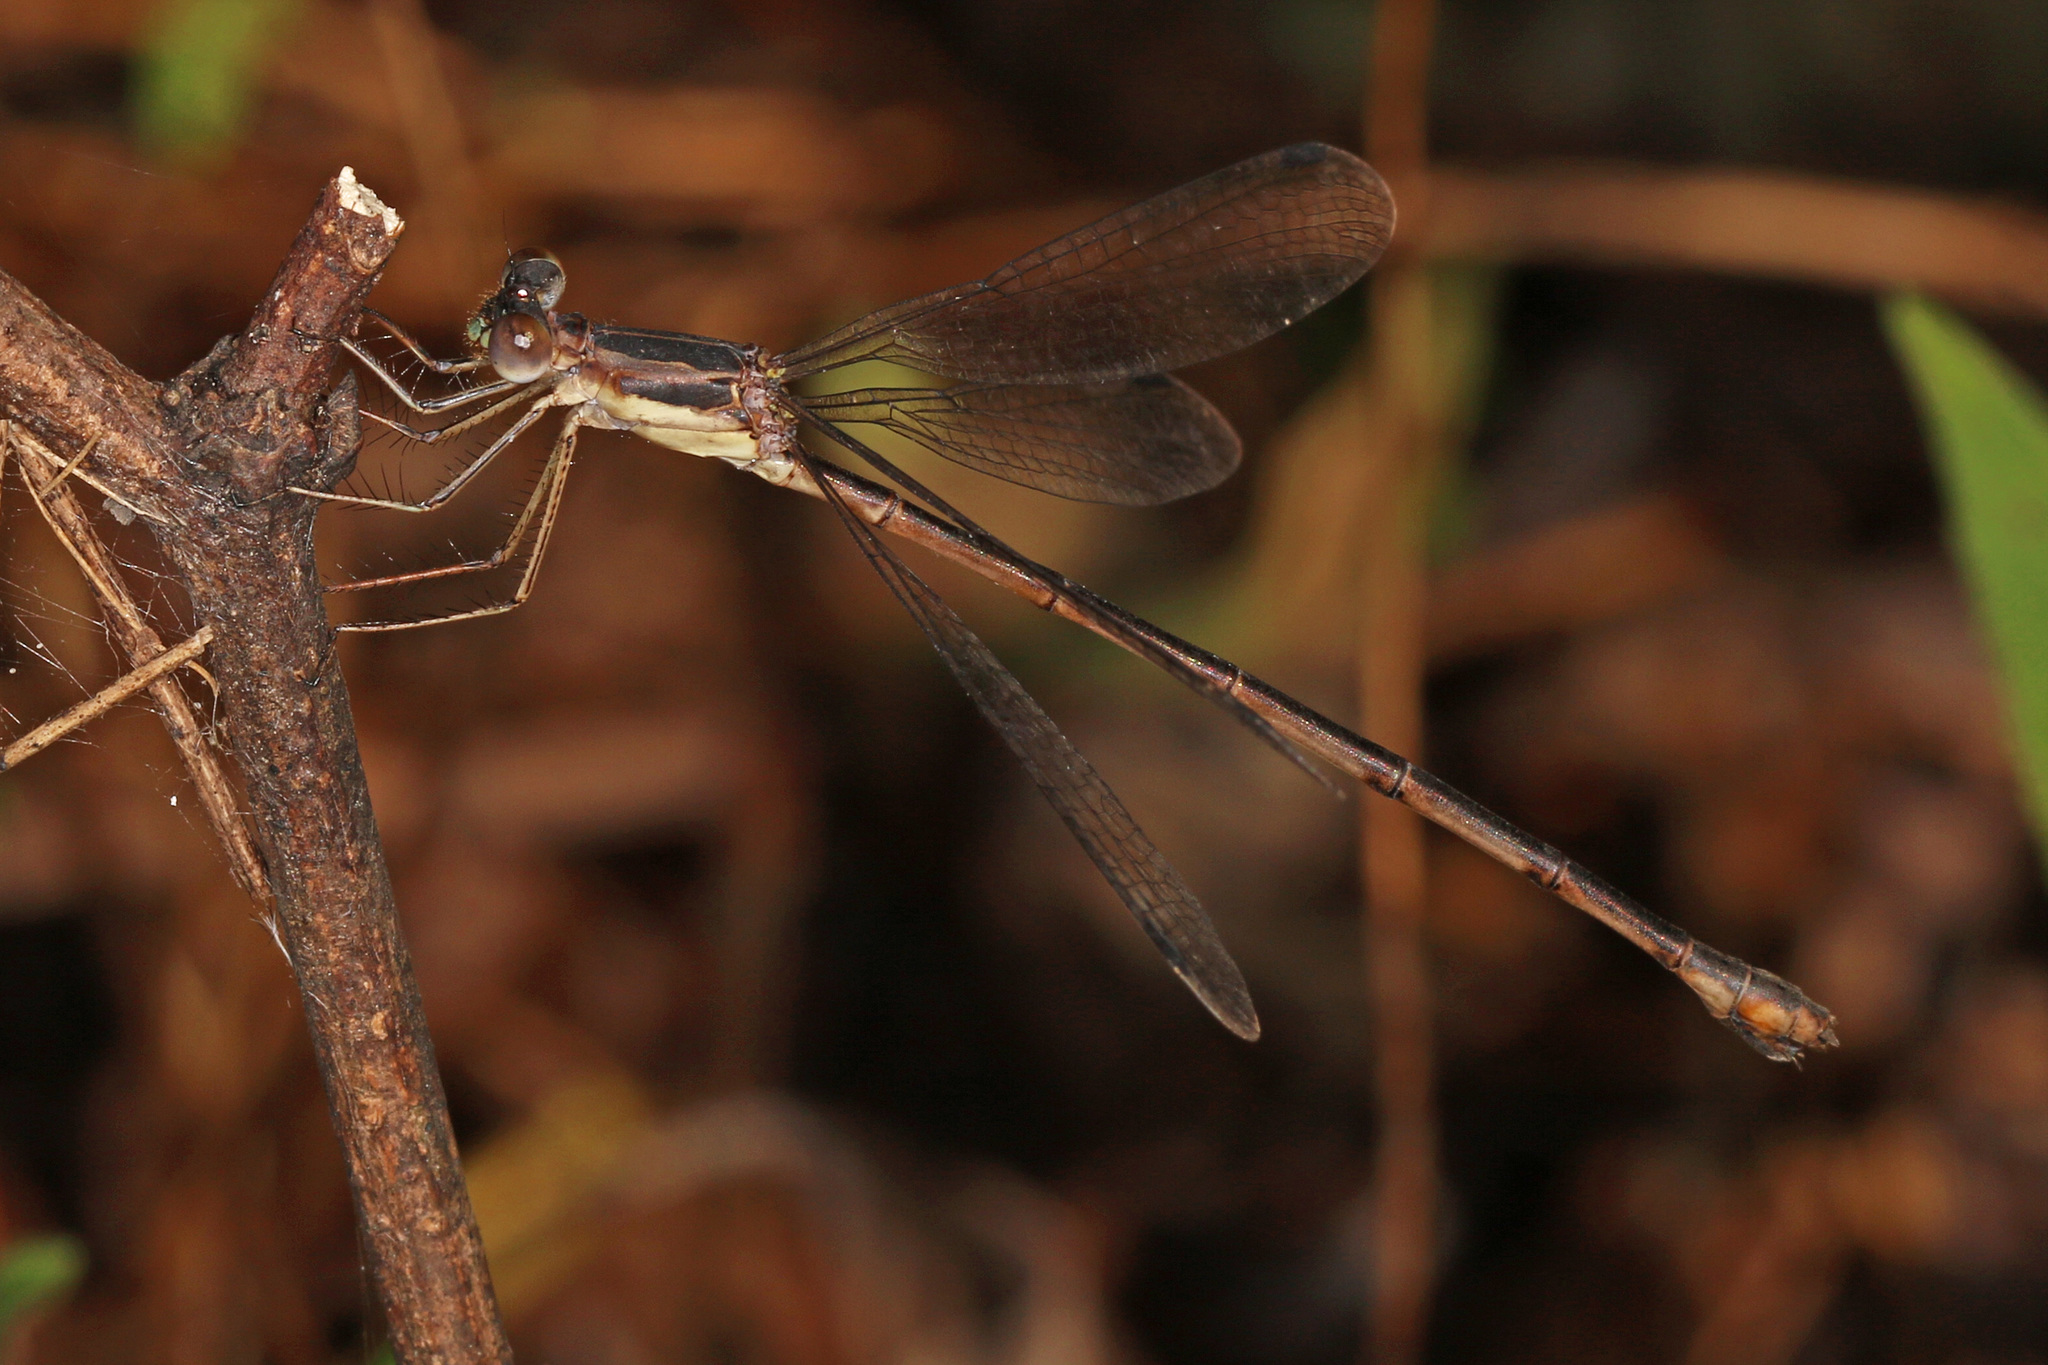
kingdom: Animalia
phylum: Arthropoda
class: Insecta
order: Odonata
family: Lestidae
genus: Lestes
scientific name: Lestes rectangularis
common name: Slender spreadwing
